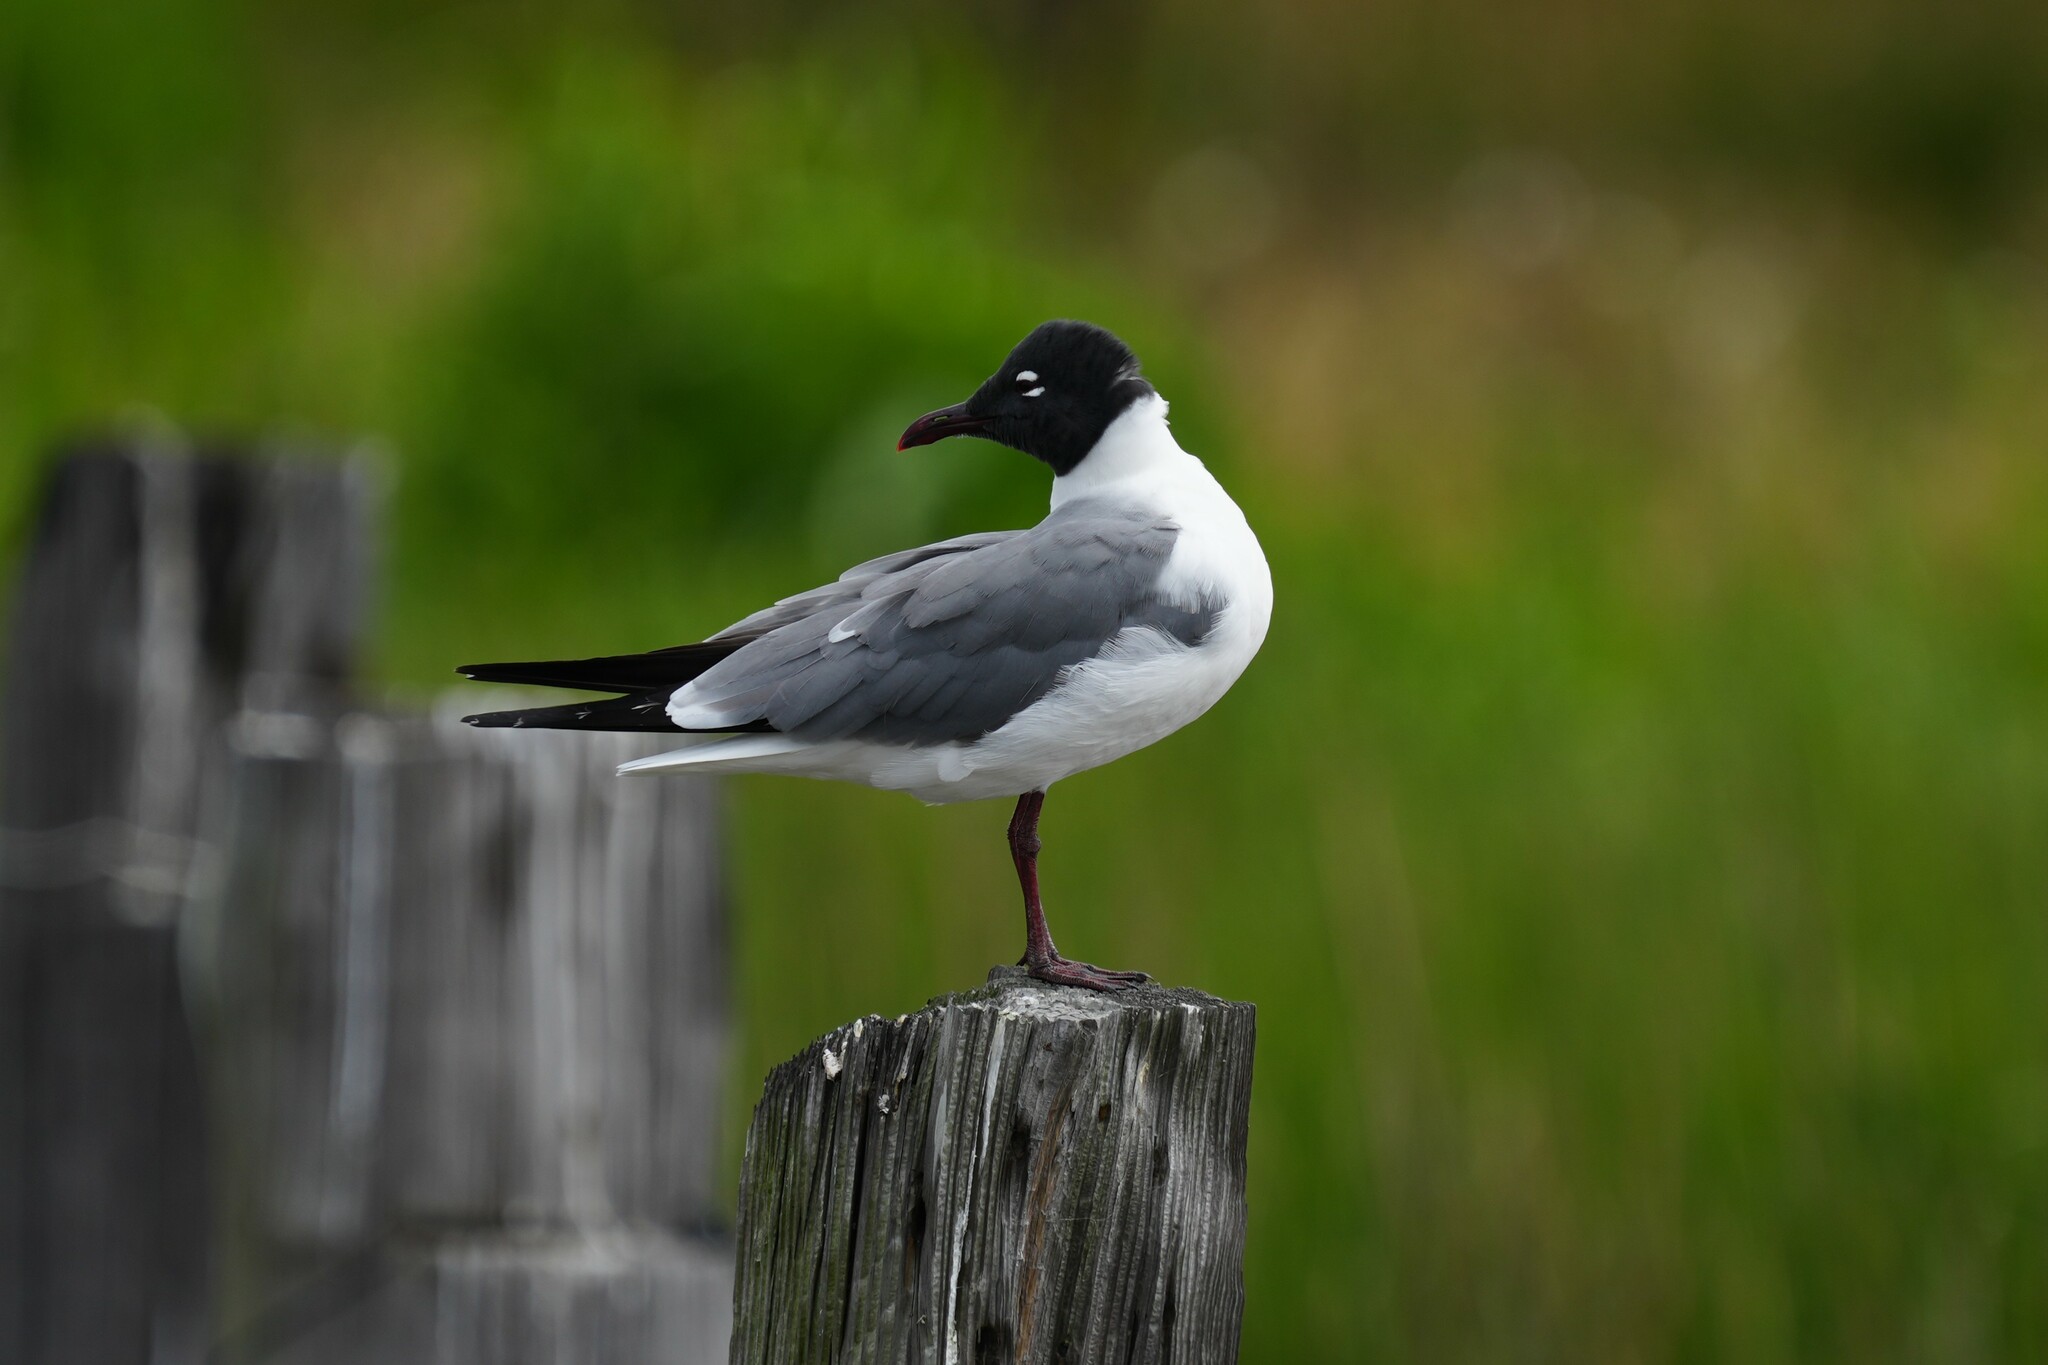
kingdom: Animalia
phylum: Chordata
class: Aves
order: Charadriiformes
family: Laridae
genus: Leucophaeus
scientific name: Leucophaeus atricilla
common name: Laughing gull
